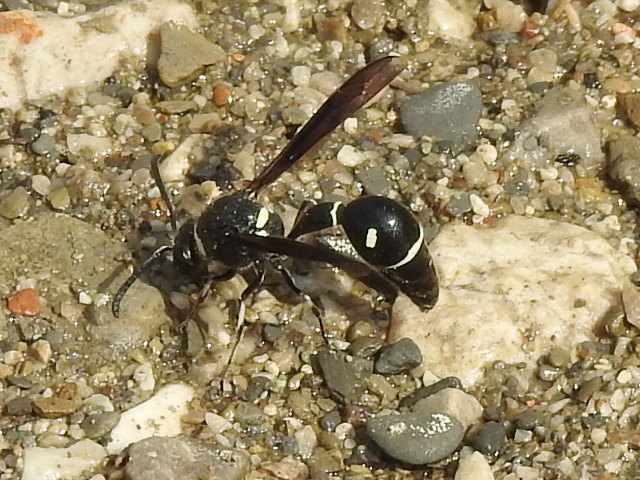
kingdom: Animalia
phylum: Arthropoda
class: Insecta
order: Hymenoptera
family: Vespidae
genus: Eumenes
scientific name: Eumenes fraternus
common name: Fraternal potter wasp
